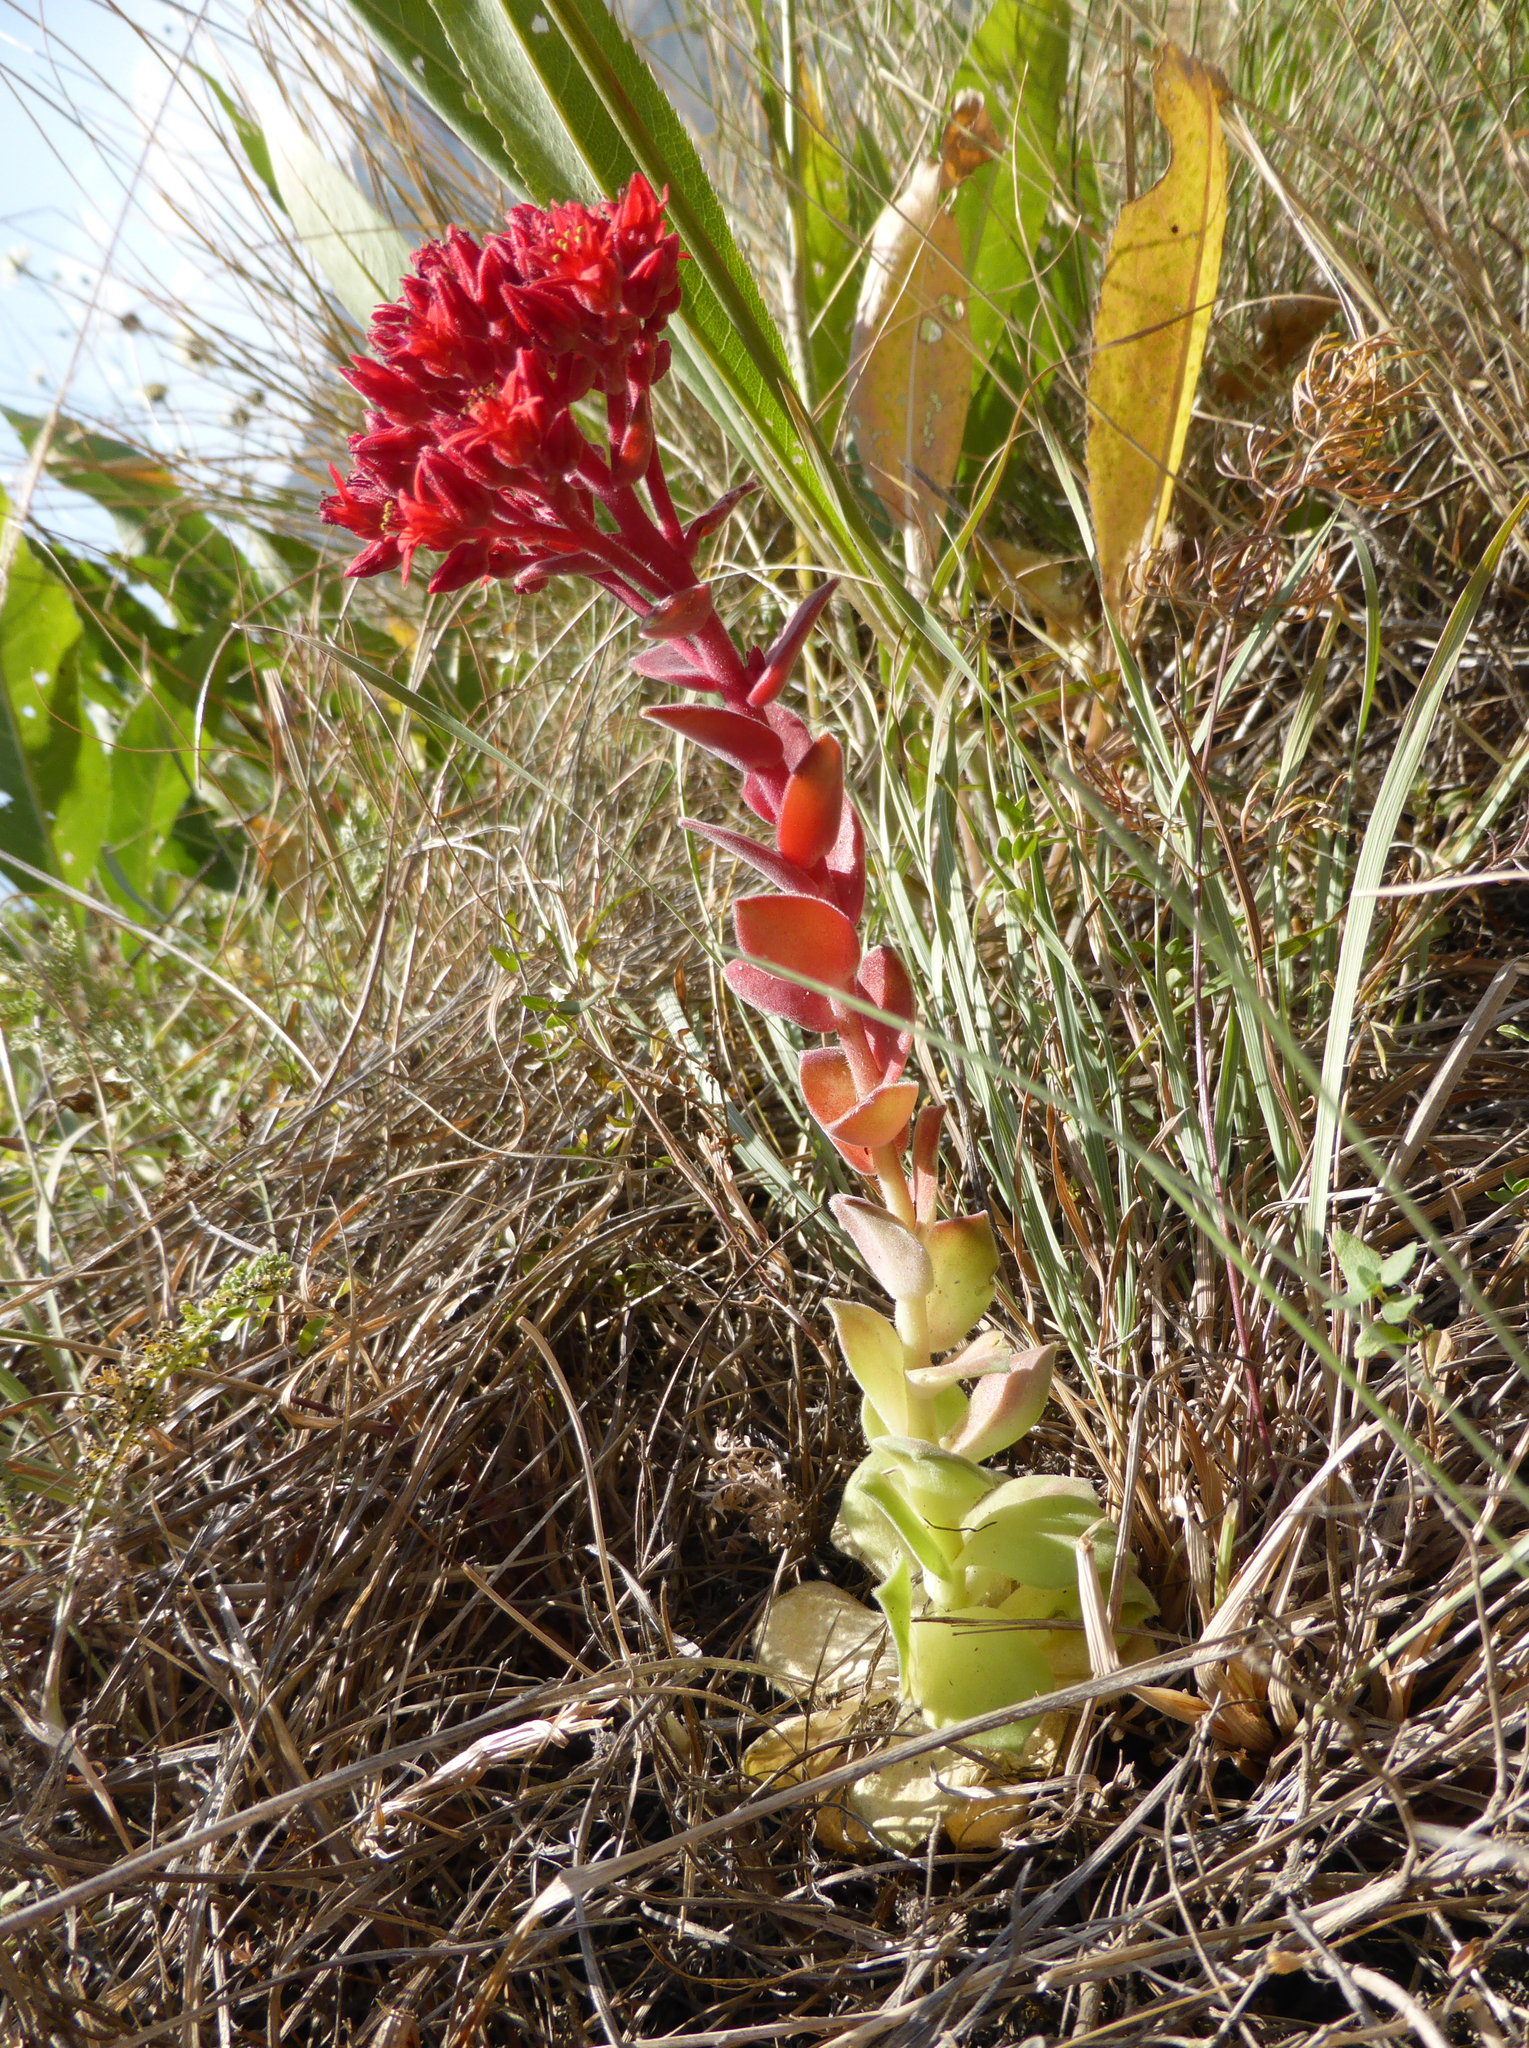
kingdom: Plantae
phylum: Tracheophyta
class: Magnoliopsida
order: Saxifragales
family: Crassulaceae
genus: Prometheum
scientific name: Prometheum sempervivoides
